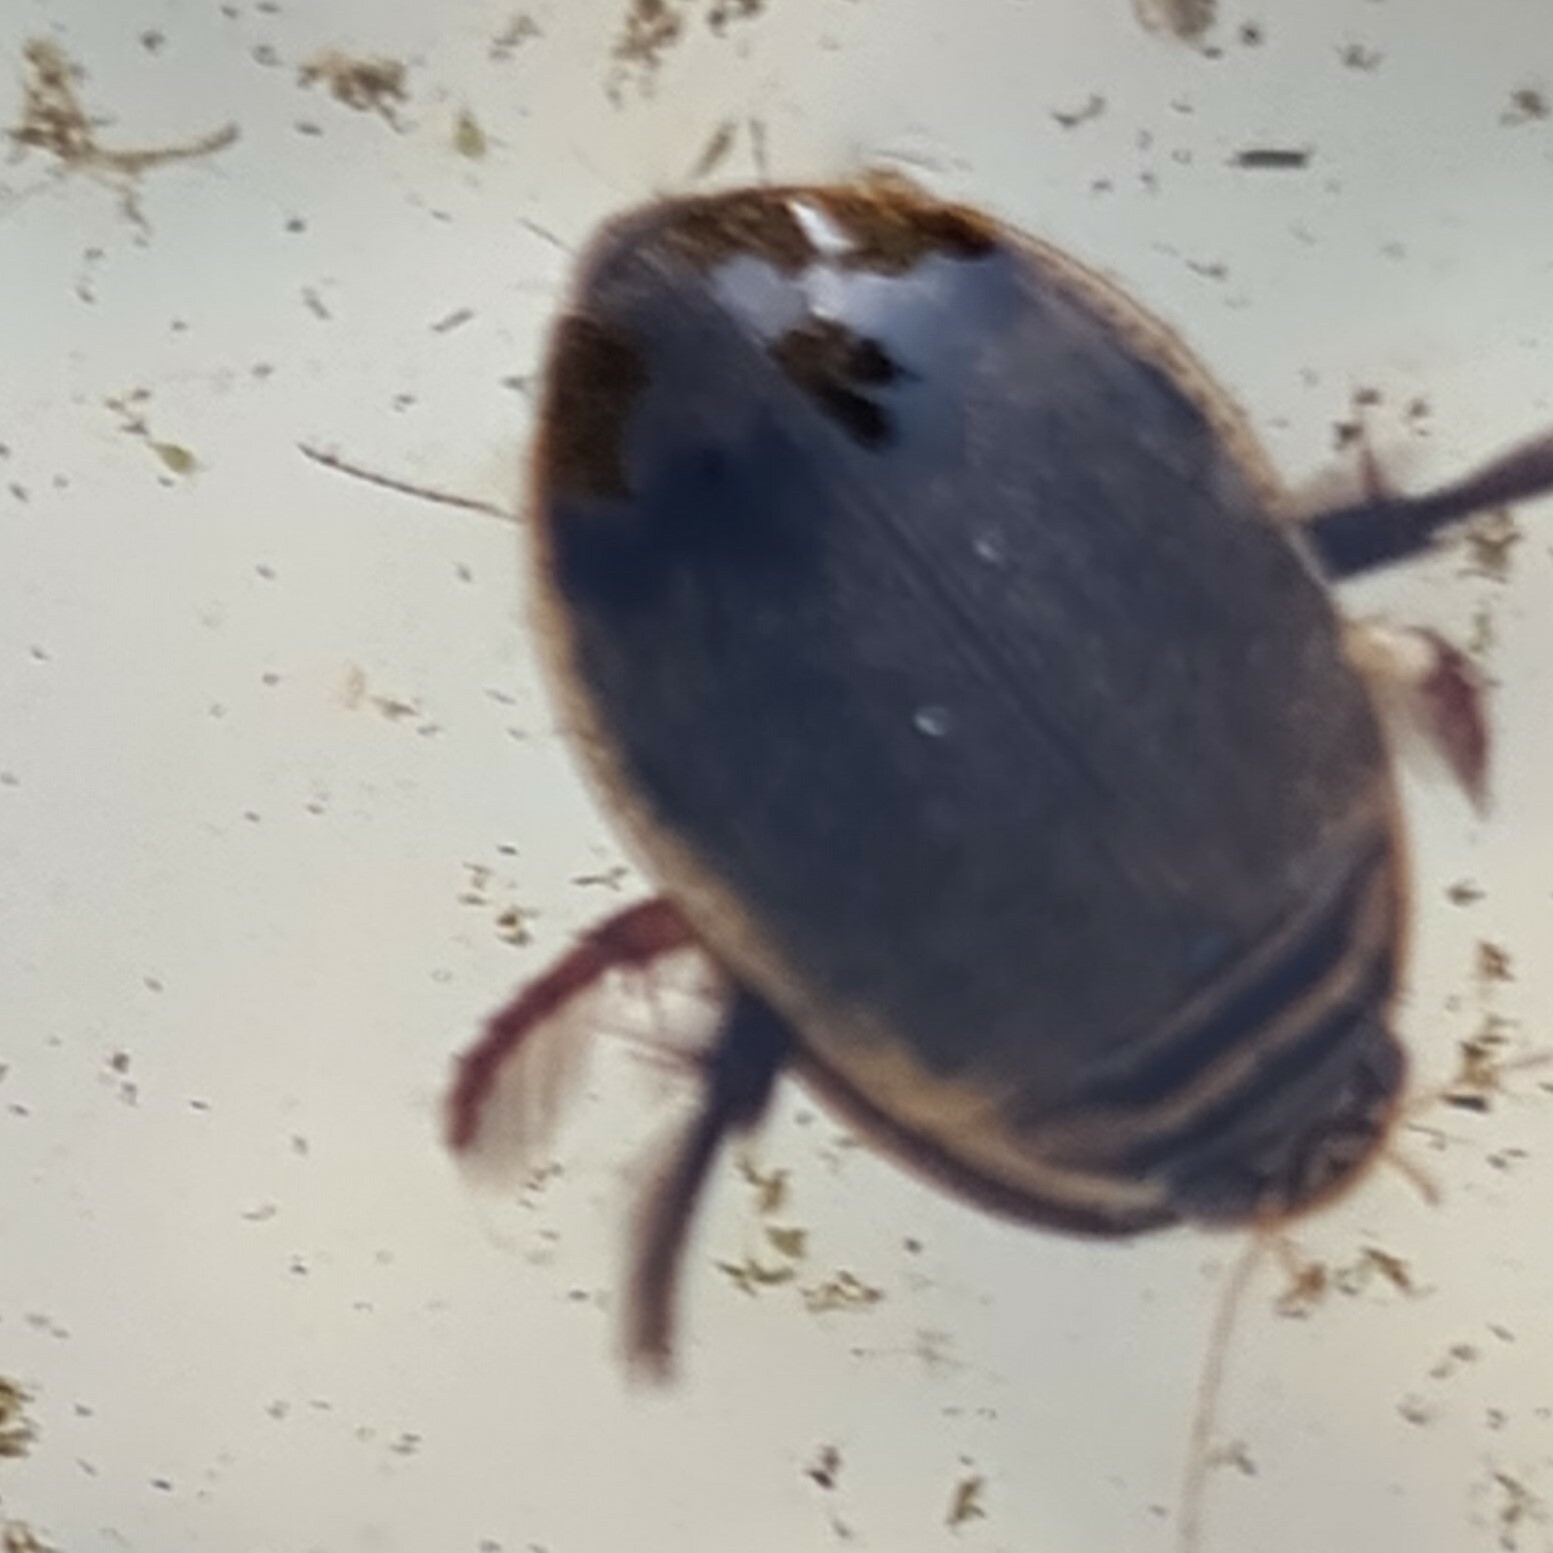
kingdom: Animalia
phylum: Arthropoda
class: Insecta
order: Coleoptera
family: Dytiscidae
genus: Acilius
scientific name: Acilius sulcatus
